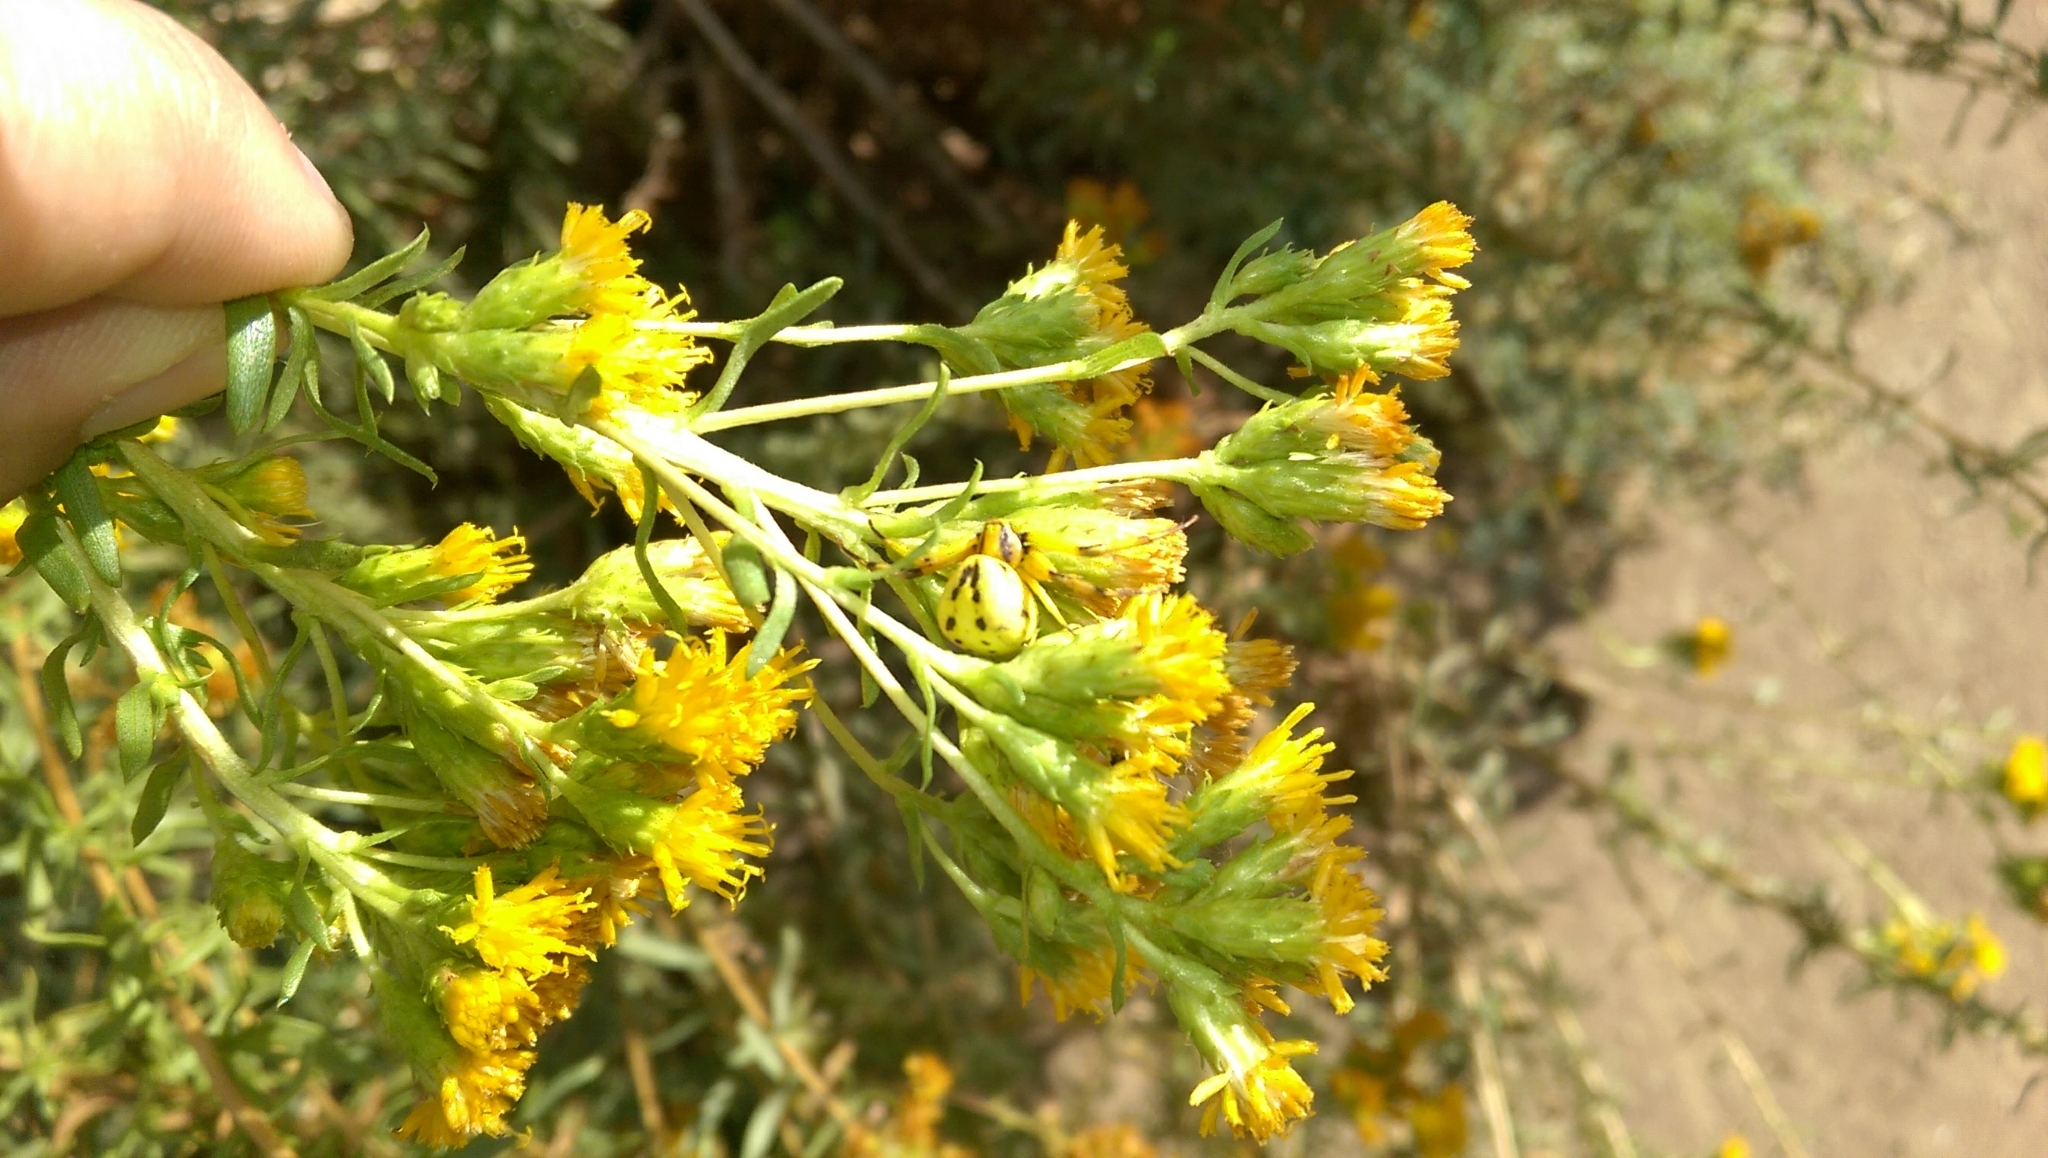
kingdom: Animalia
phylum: Arthropoda
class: Arachnida
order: Araneae
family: Thomisidae
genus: Misumenoides
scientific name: Misumenoides formosipes
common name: White-banded crab spider
